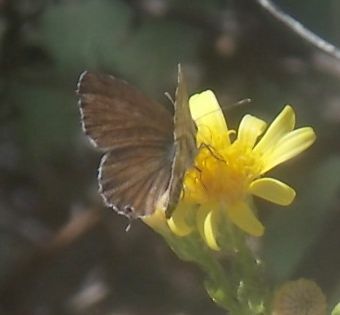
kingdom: Animalia
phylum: Arthropoda
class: Insecta
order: Lepidoptera
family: Lycaenidae
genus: Cacyreus
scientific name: Cacyreus marshalli
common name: Geranium bronze
